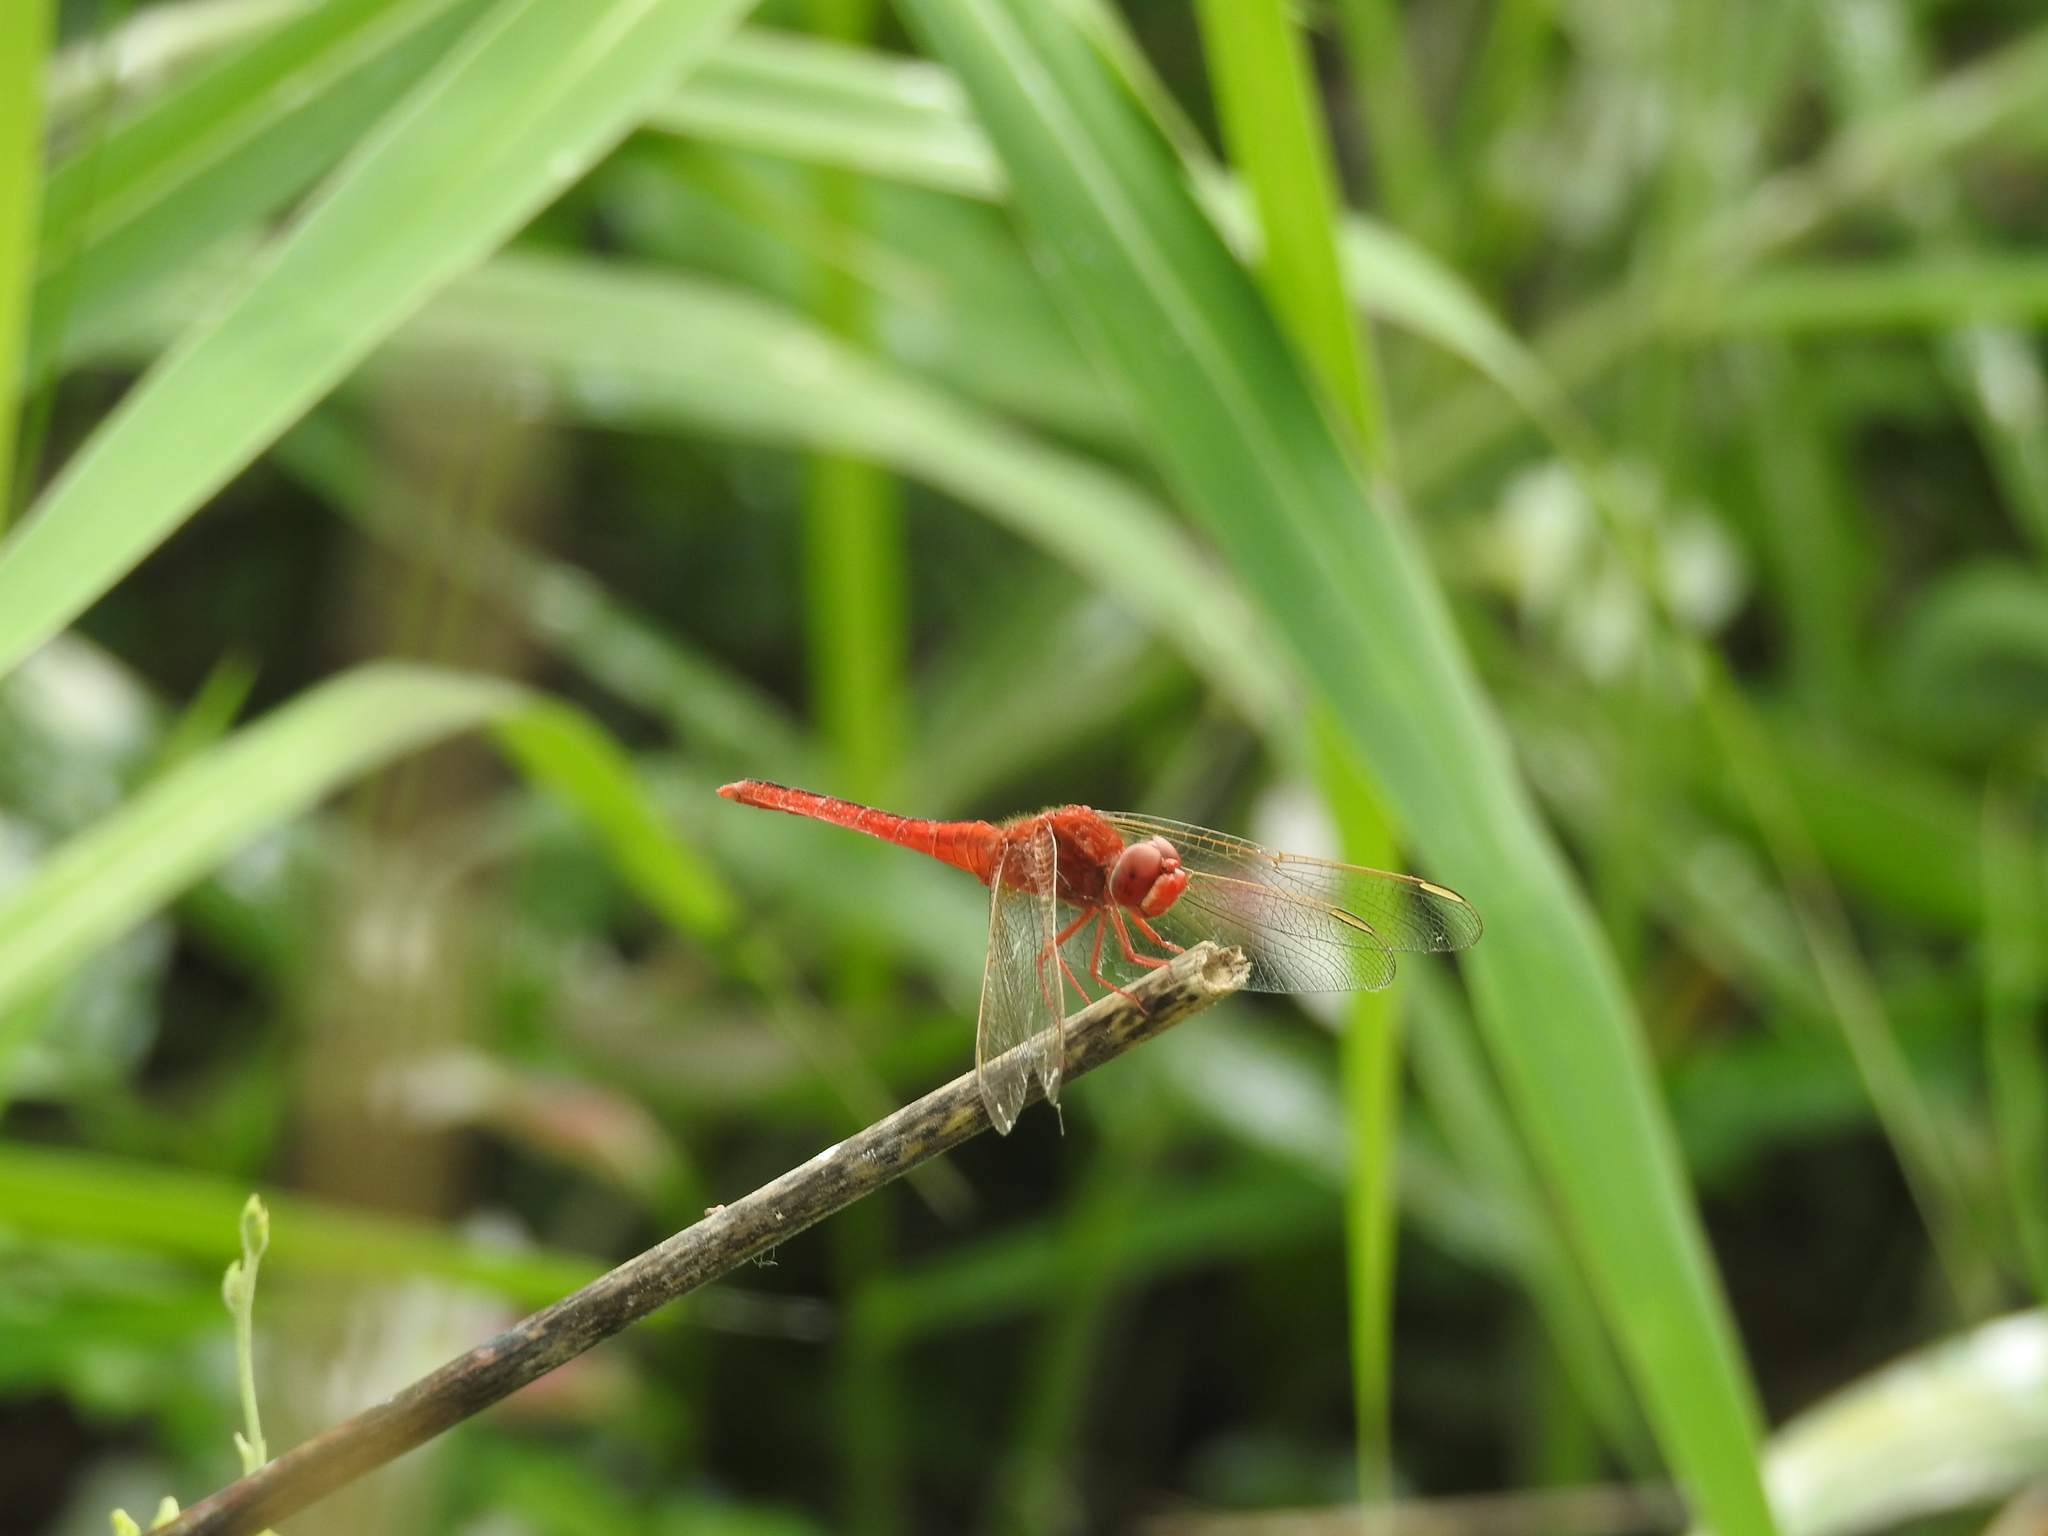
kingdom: Animalia
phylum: Arthropoda
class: Insecta
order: Odonata
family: Libellulidae
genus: Crocothemis
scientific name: Crocothemis servilia
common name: Scarlet skimmer
